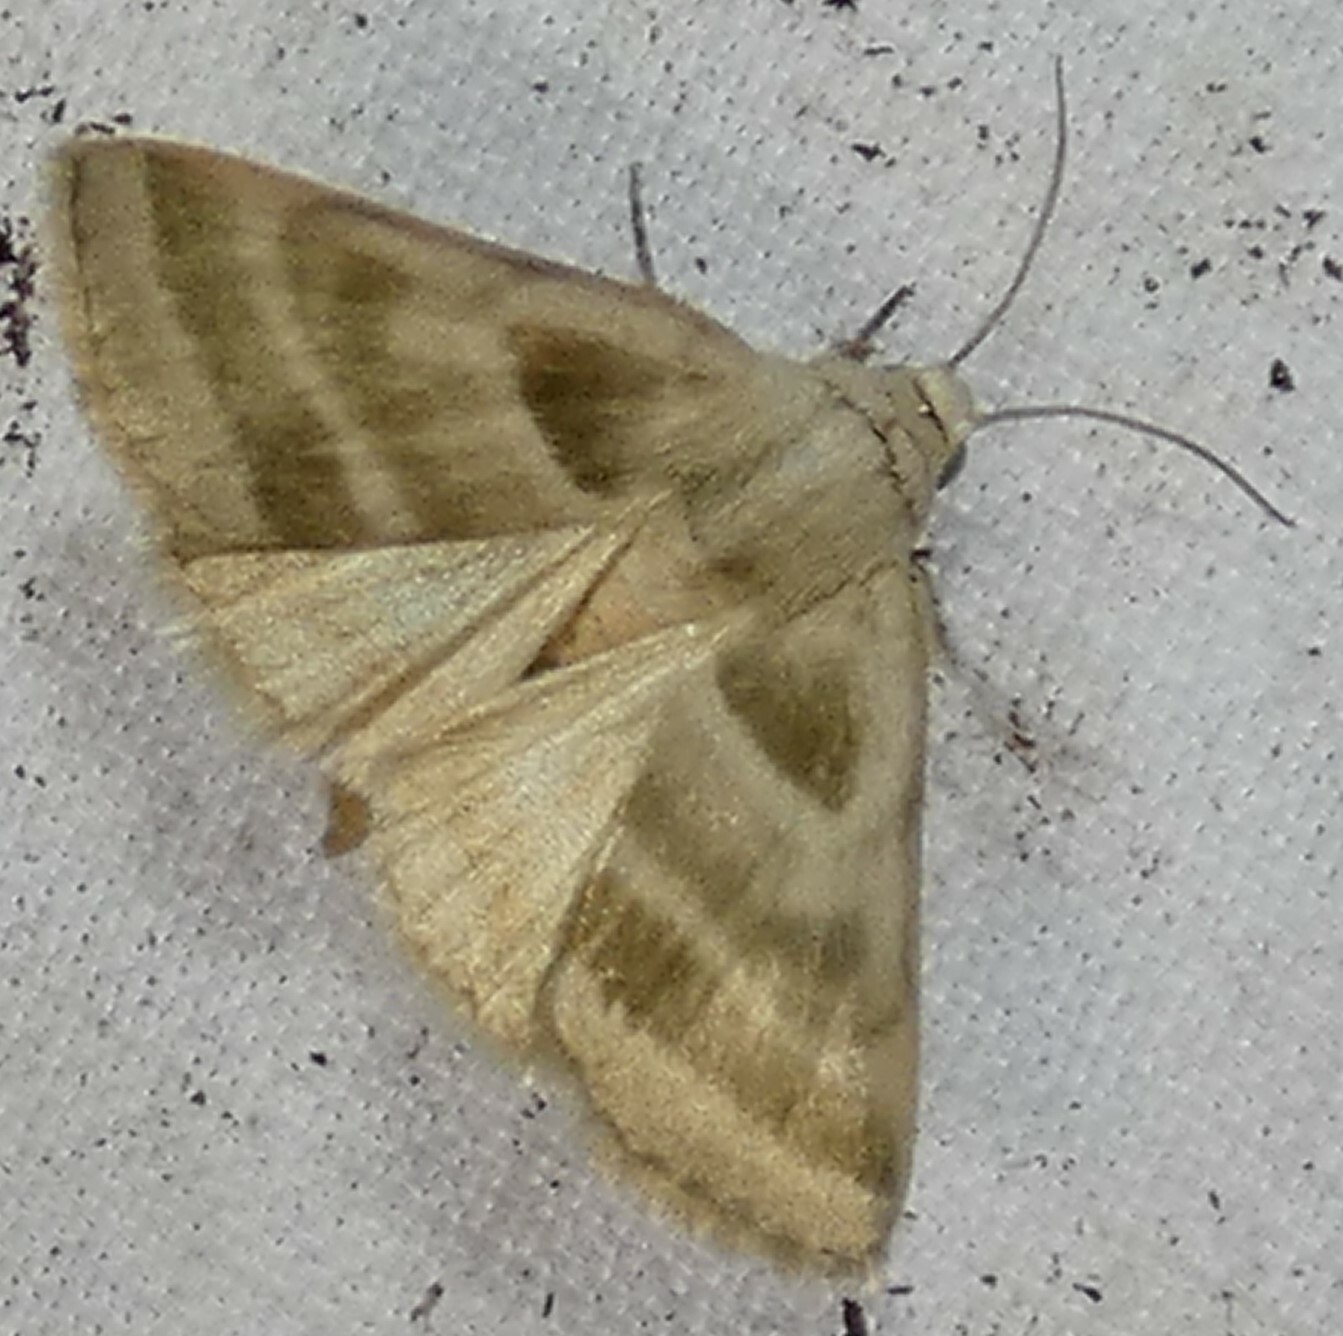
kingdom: Animalia
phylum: Arthropoda
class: Insecta
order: Lepidoptera
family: Noctuidae
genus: Schinia
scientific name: Schinia trifascia
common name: Three-lined flower moth
